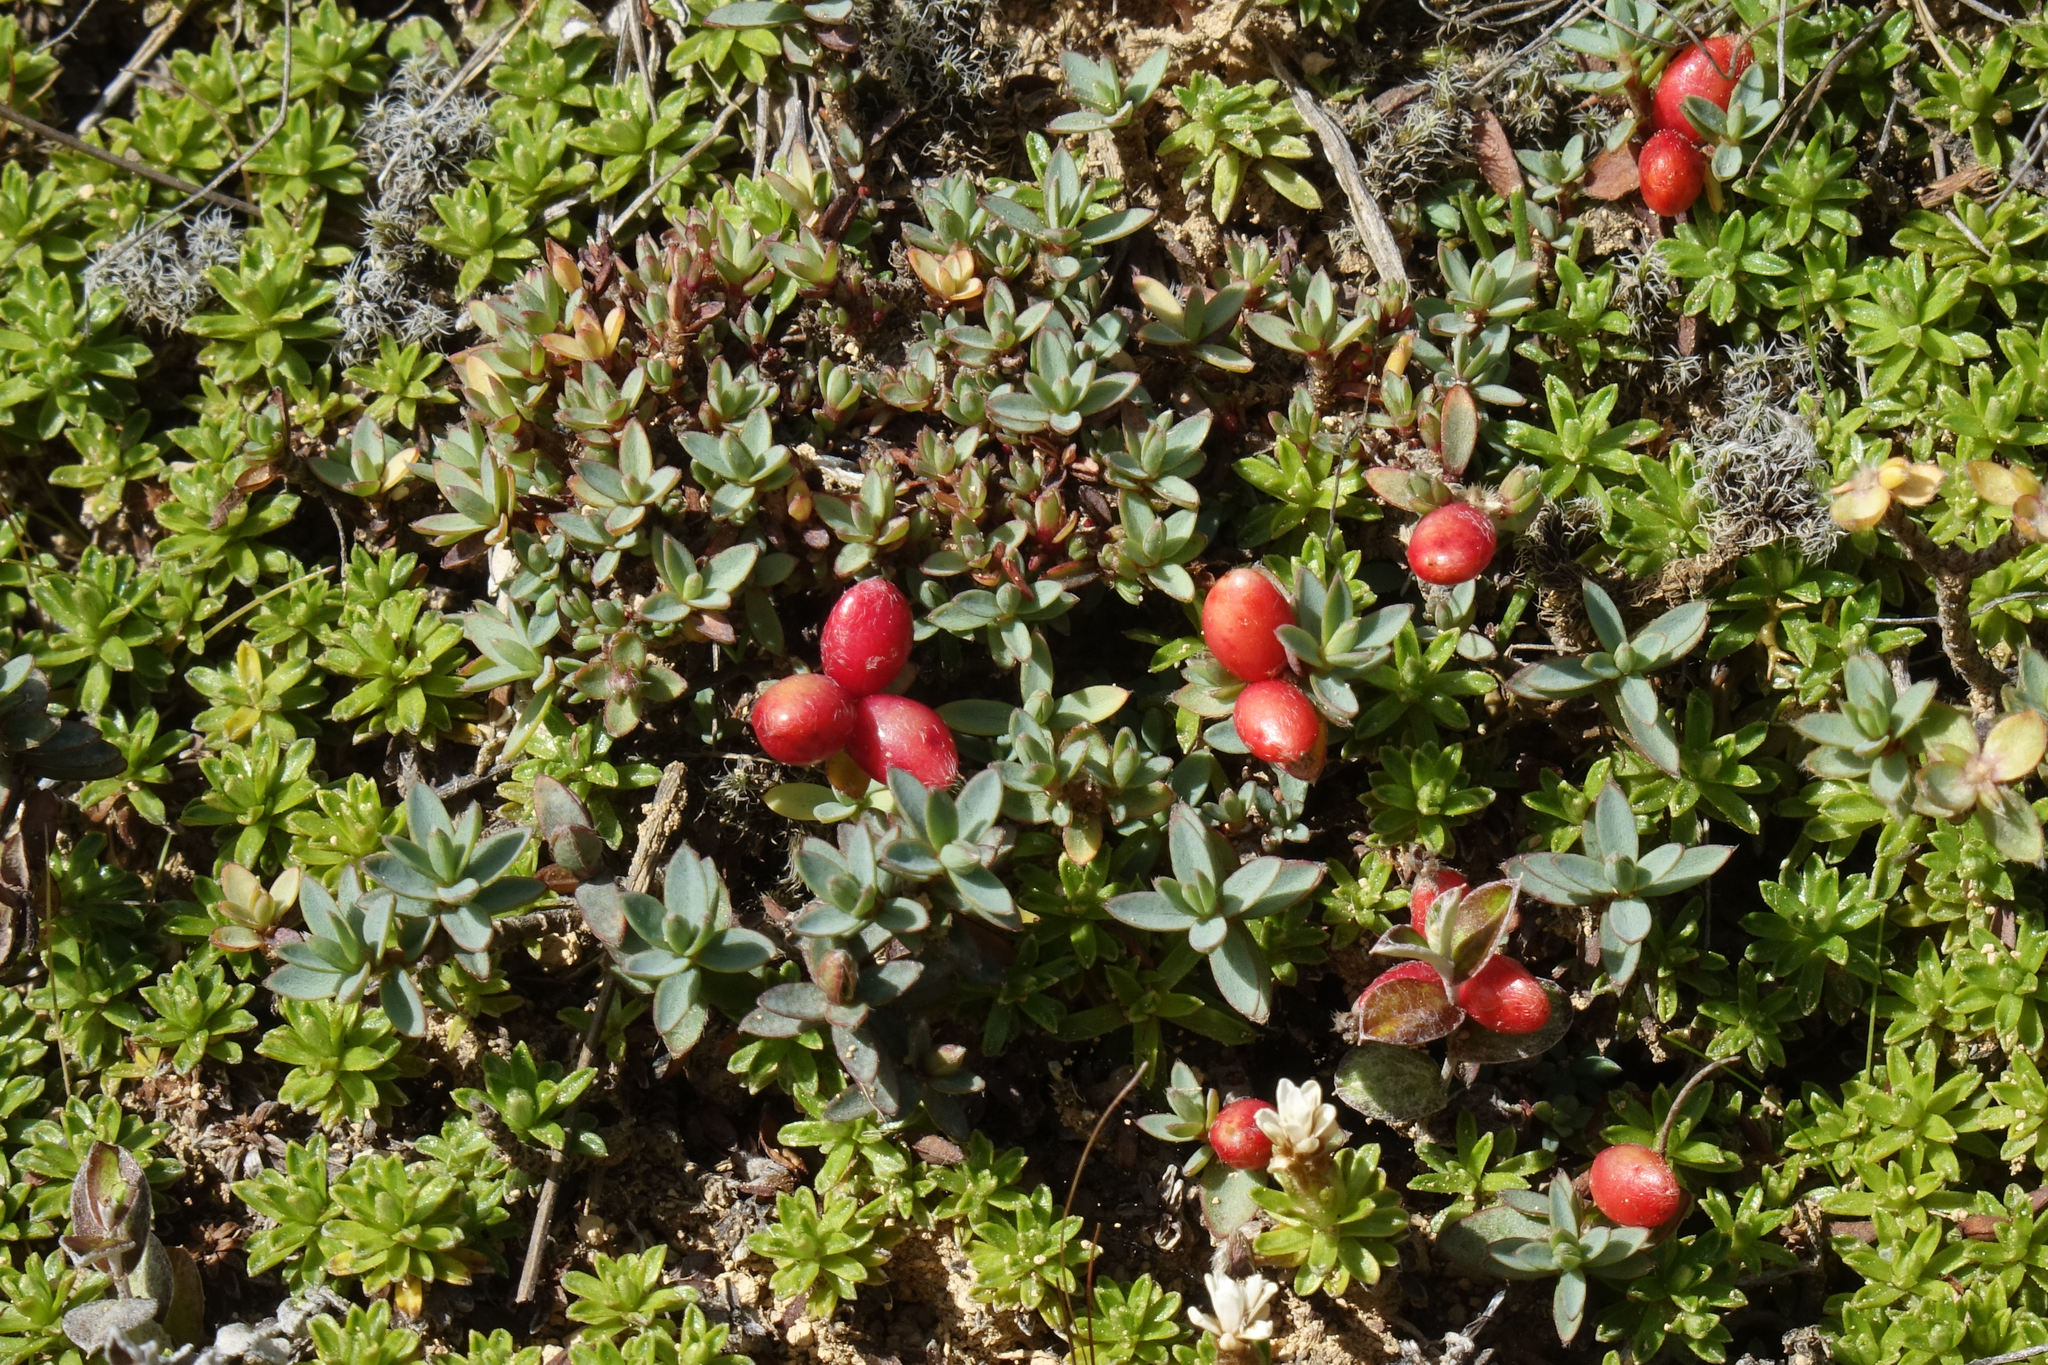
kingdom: Plantae
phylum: Tracheophyta
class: Magnoliopsida
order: Malvales
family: Thymelaeaceae
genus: Pimelea
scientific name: Pimelea prostrata
